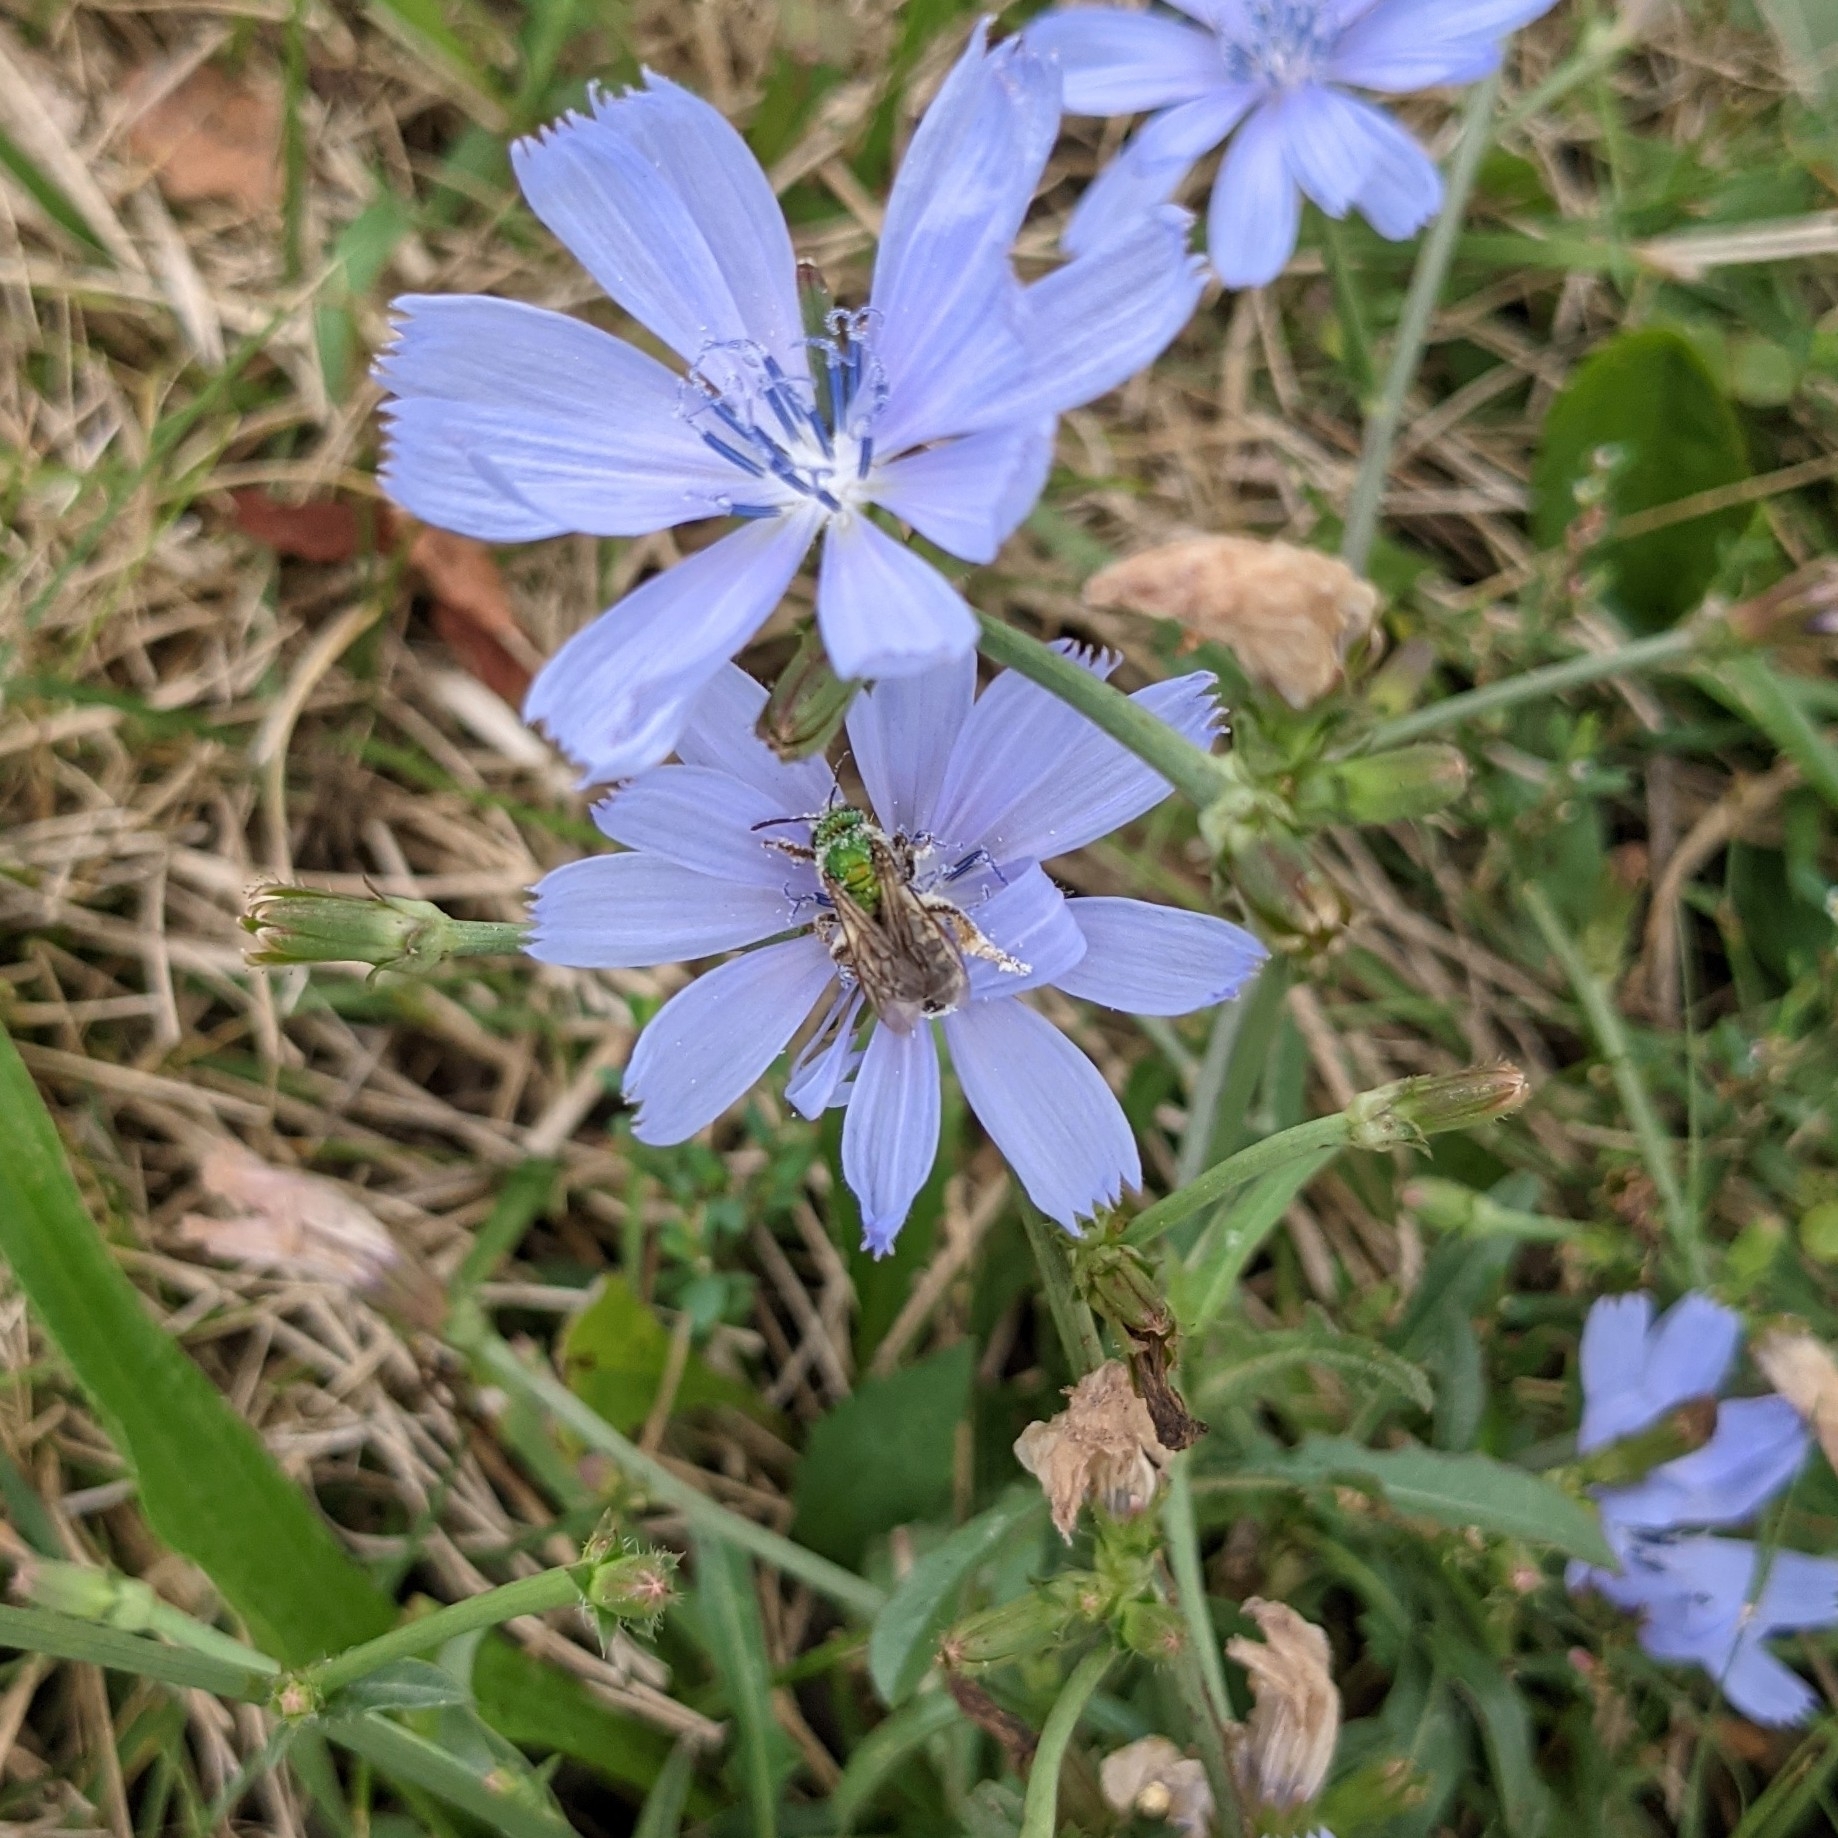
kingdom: Animalia
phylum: Arthropoda
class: Insecta
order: Hymenoptera
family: Halictidae
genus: Agapostemon
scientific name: Agapostemon virescens
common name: Bicolored striped sweat bee
